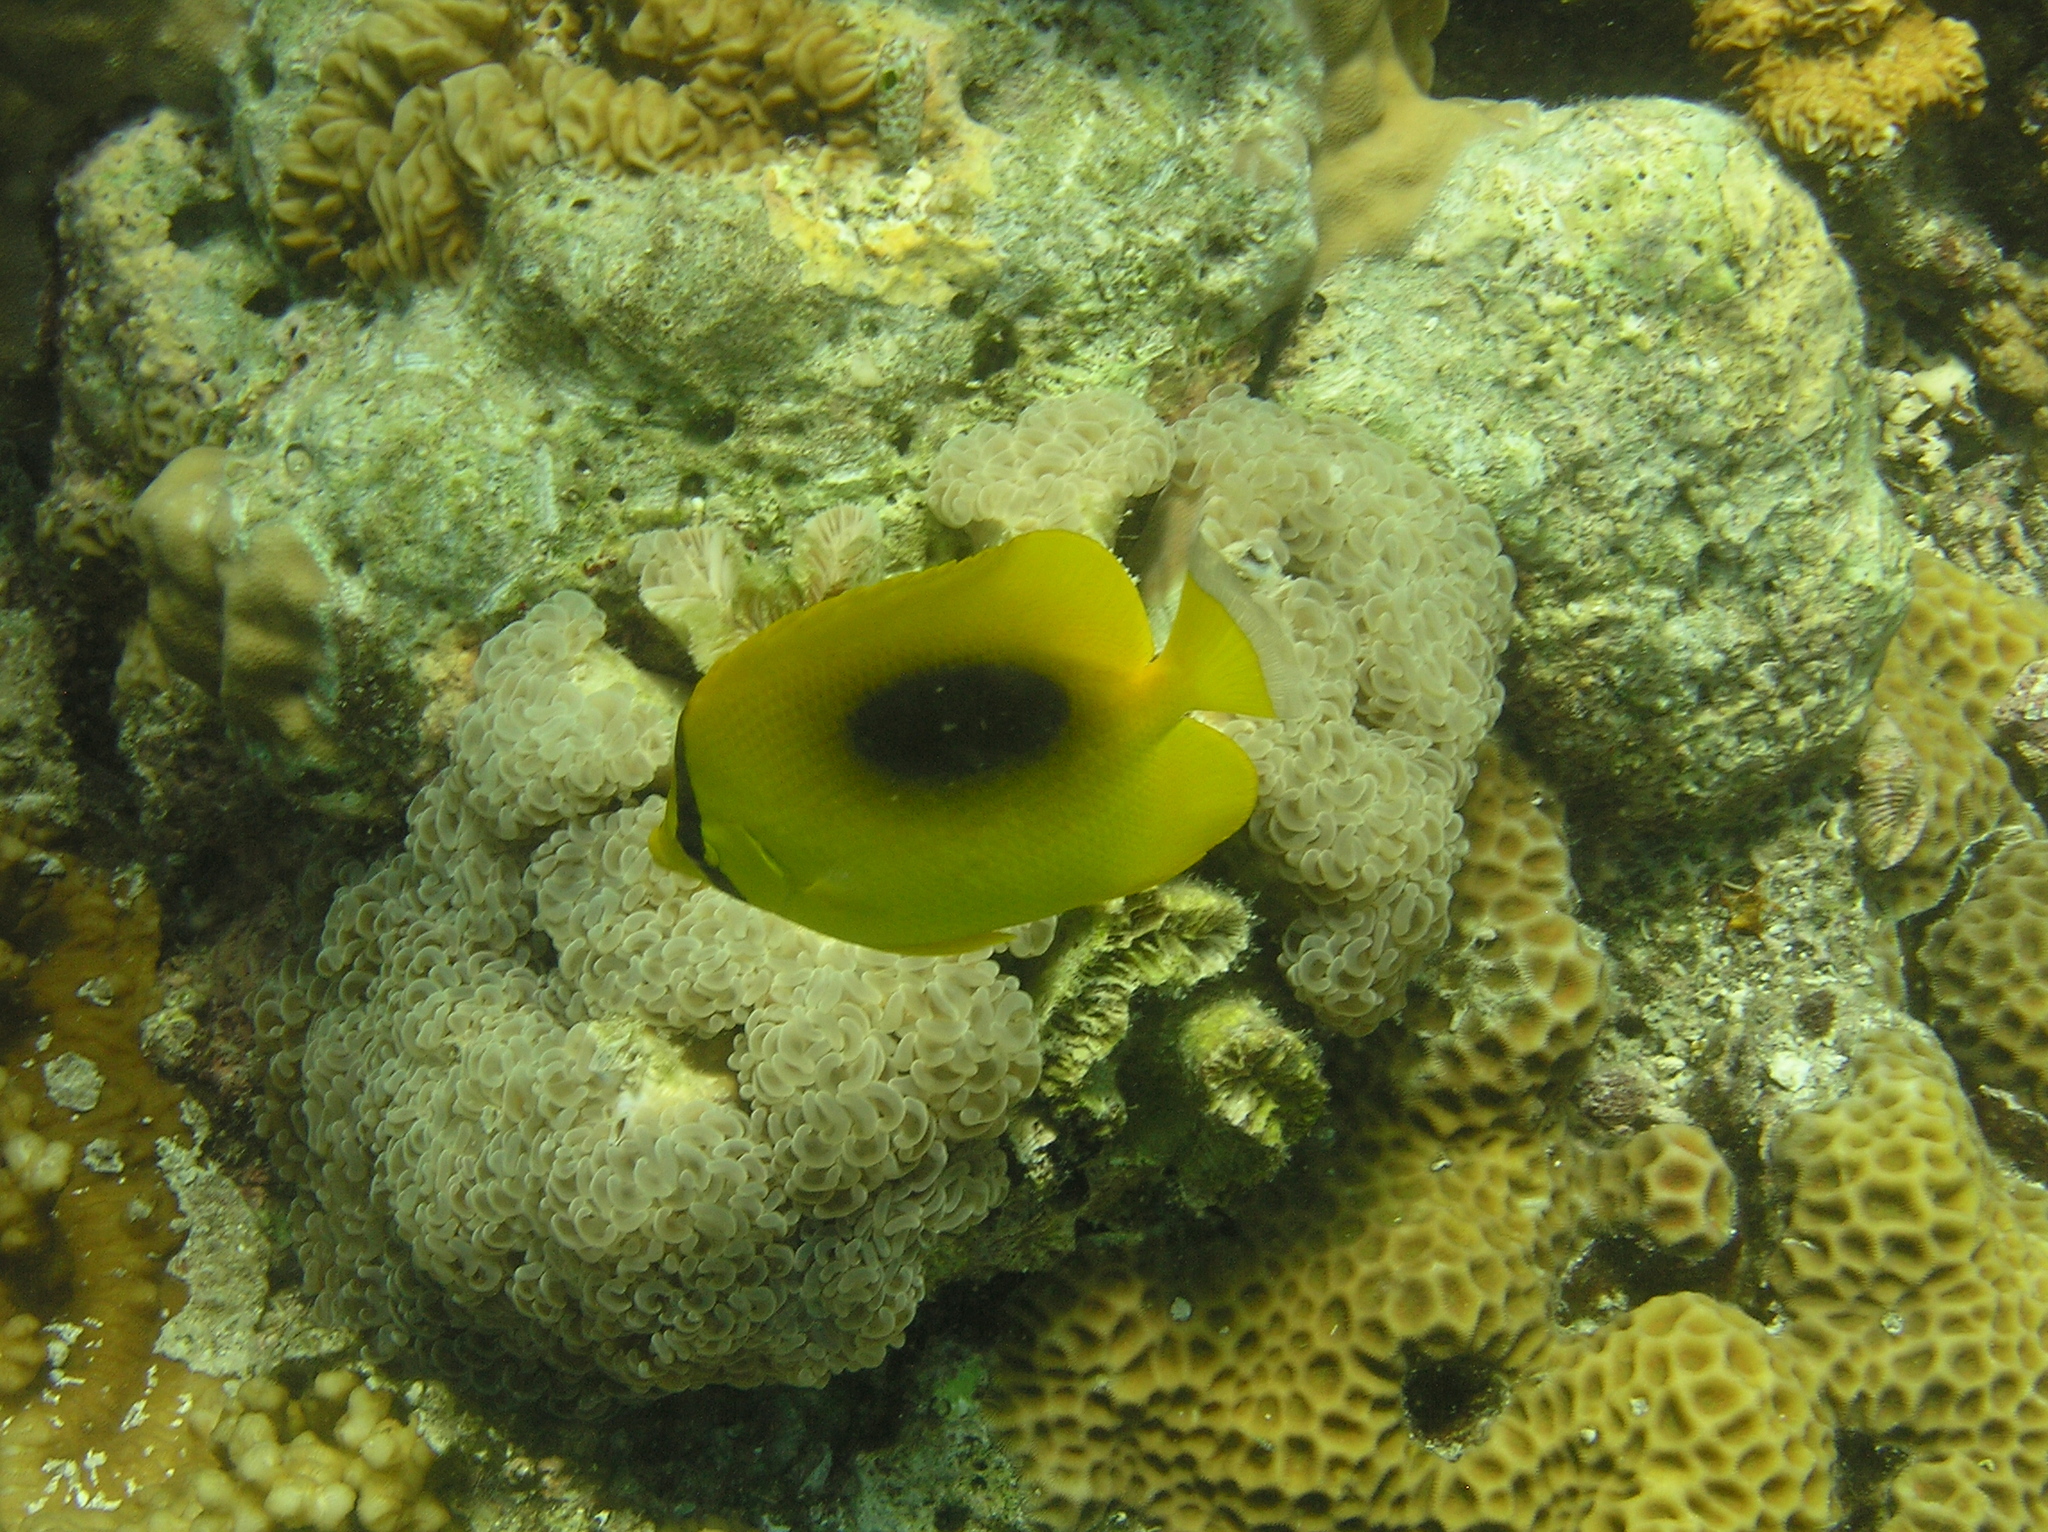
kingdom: Animalia
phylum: Chordata
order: Perciformes
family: Chaetodontidae
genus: Chaetodon
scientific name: Chaetodon speculum
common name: Mirror butterflyfish
